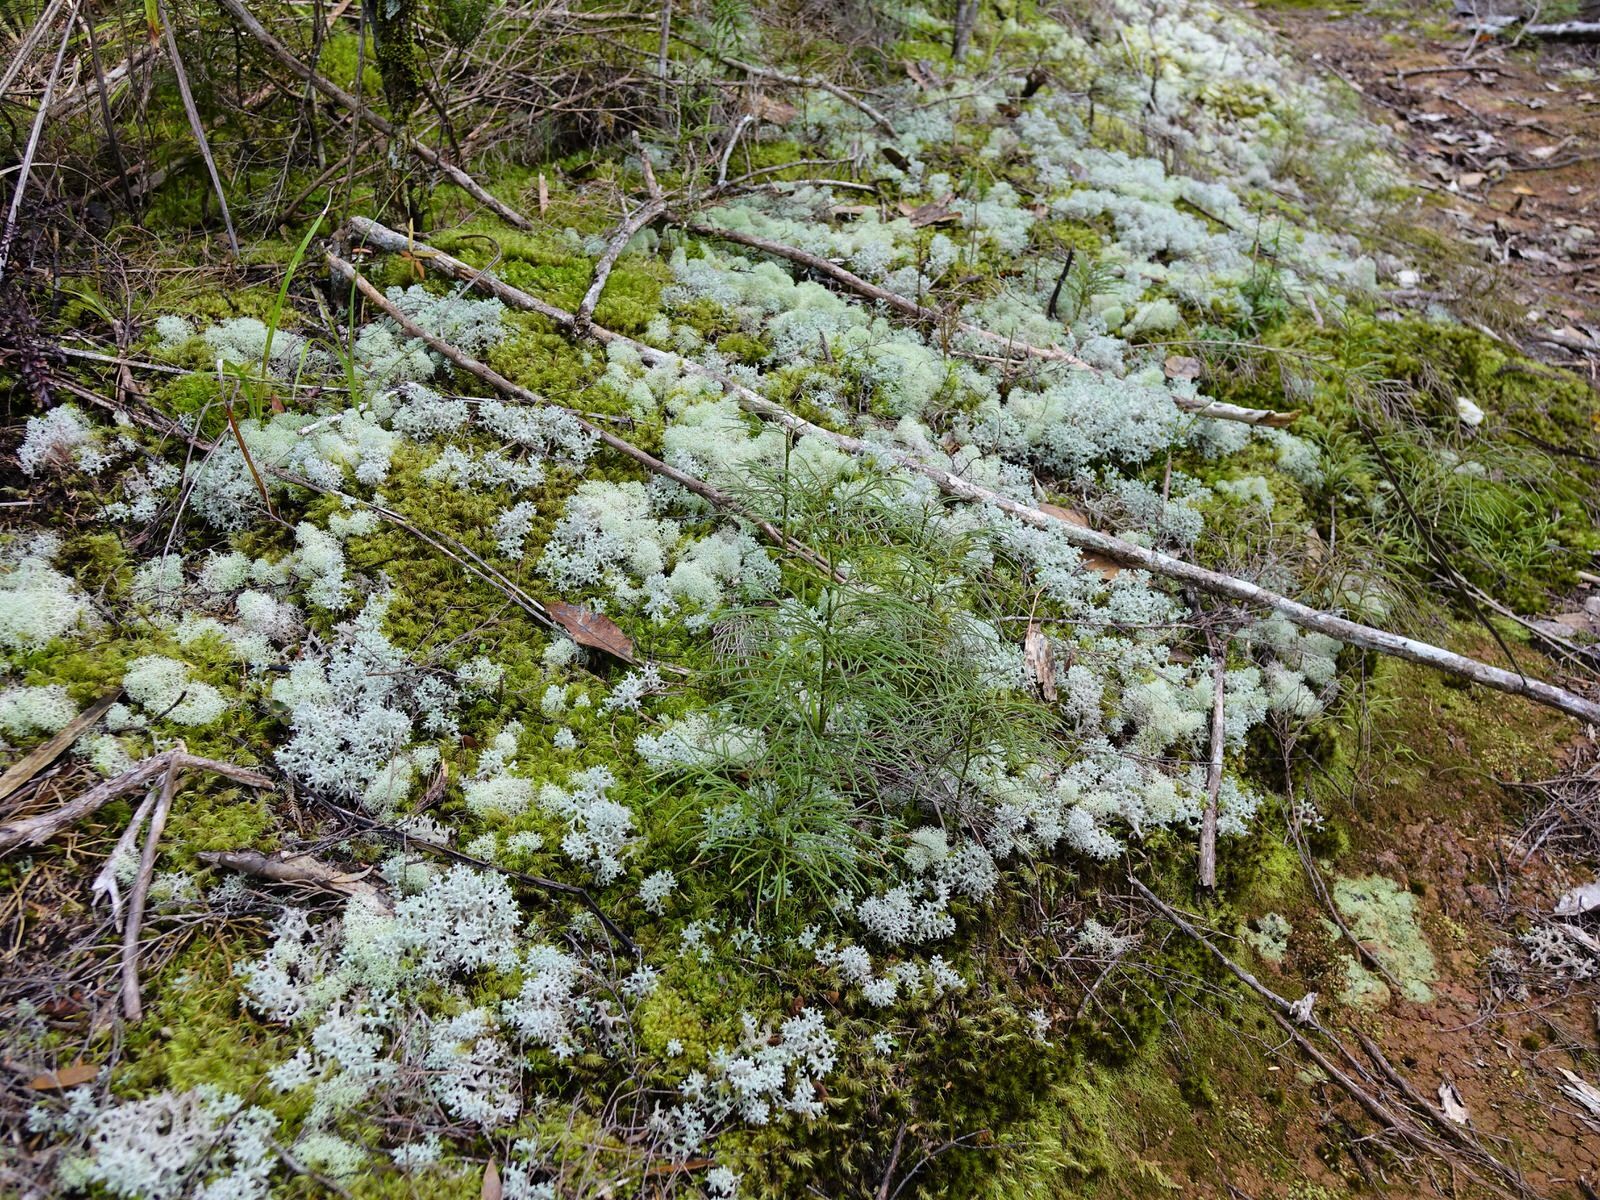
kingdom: Fungi
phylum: Ascomycota
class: Lecanoromycetes
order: Lecanorales
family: Cladoniaceae
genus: Cladonia
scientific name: Cladonia confusa
